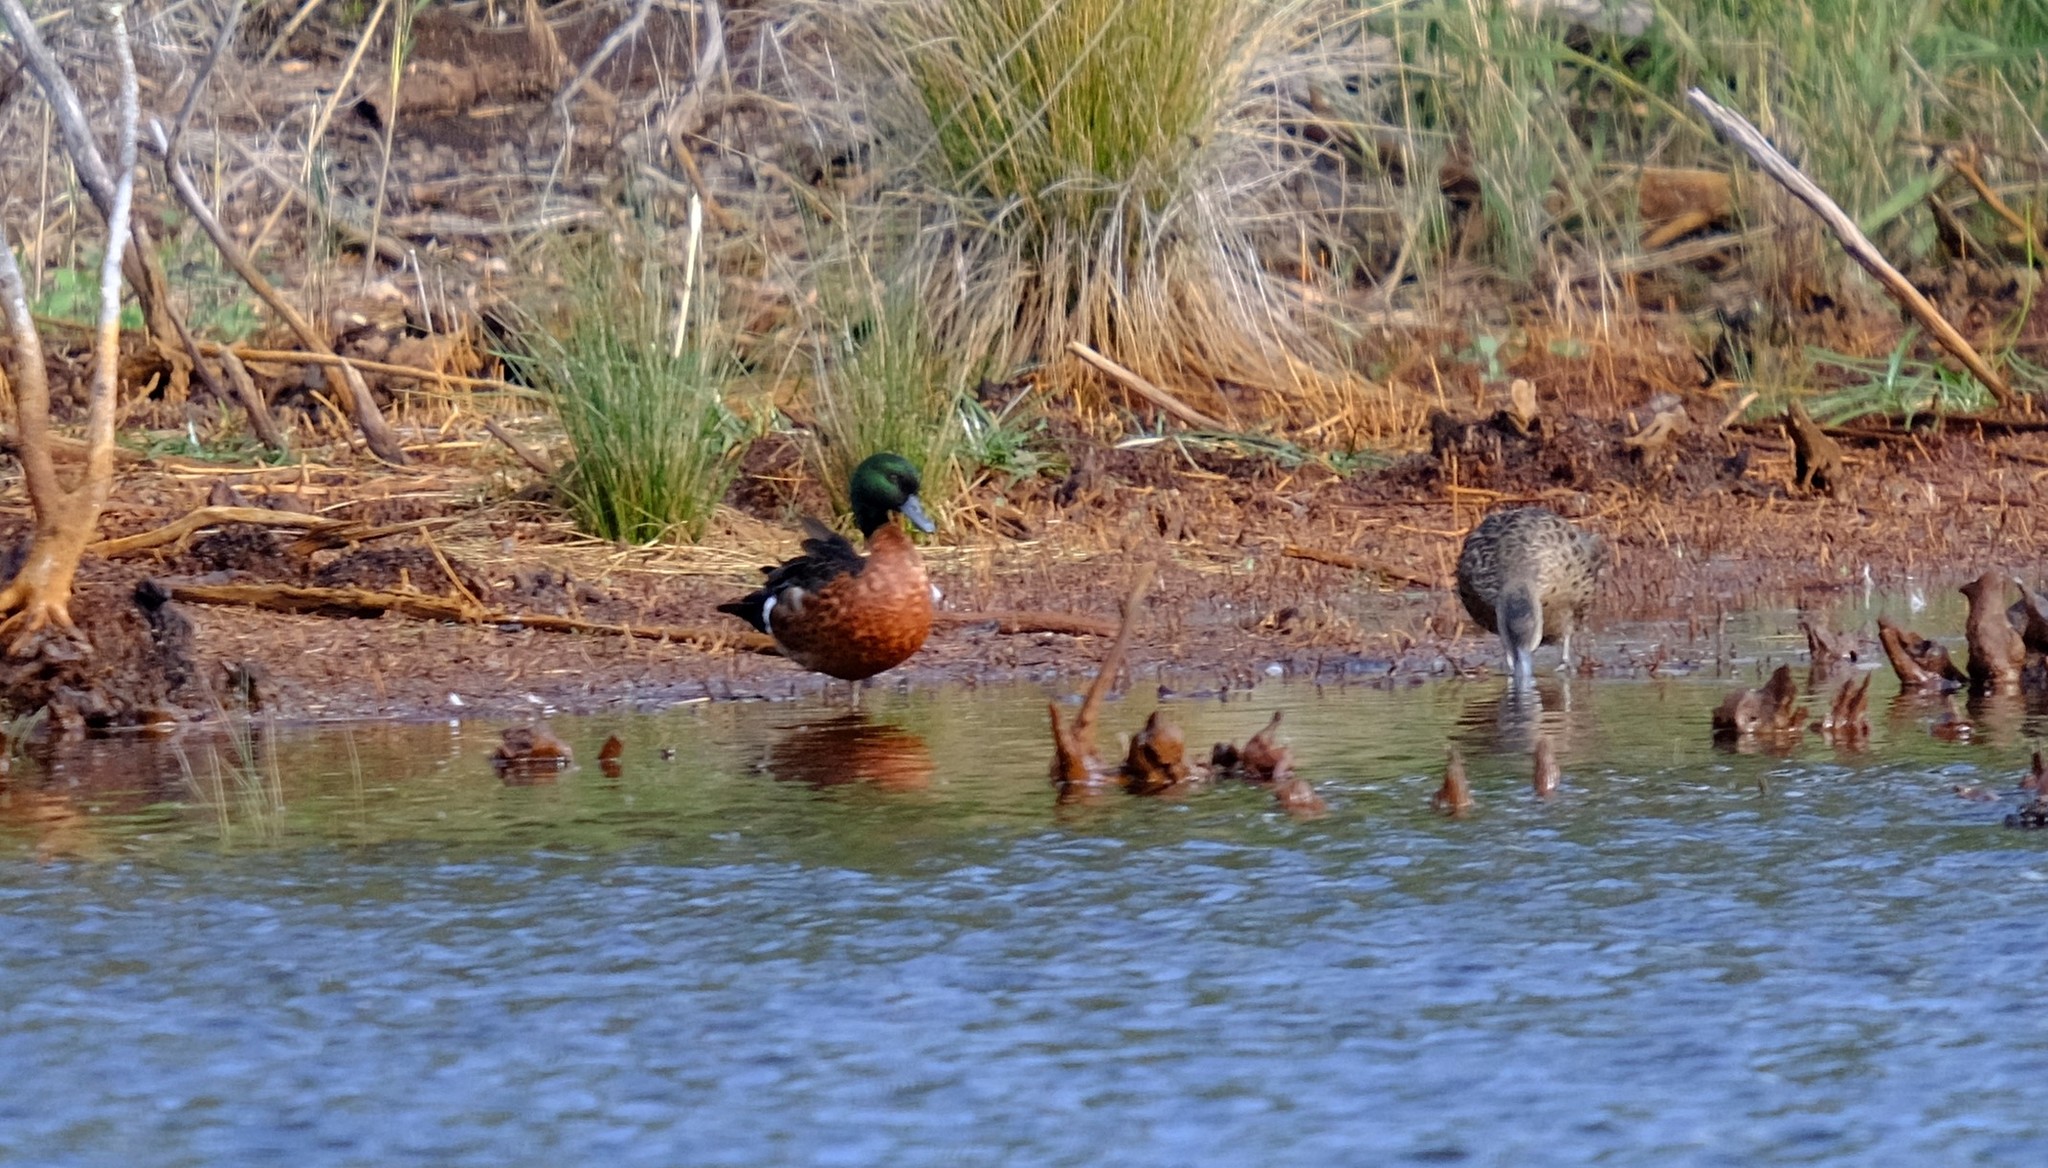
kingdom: Animalia
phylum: Chordata
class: Aves
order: Anseriformes
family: Anatidae
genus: Anas
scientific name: Anas castanea
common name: Chestnut teal
